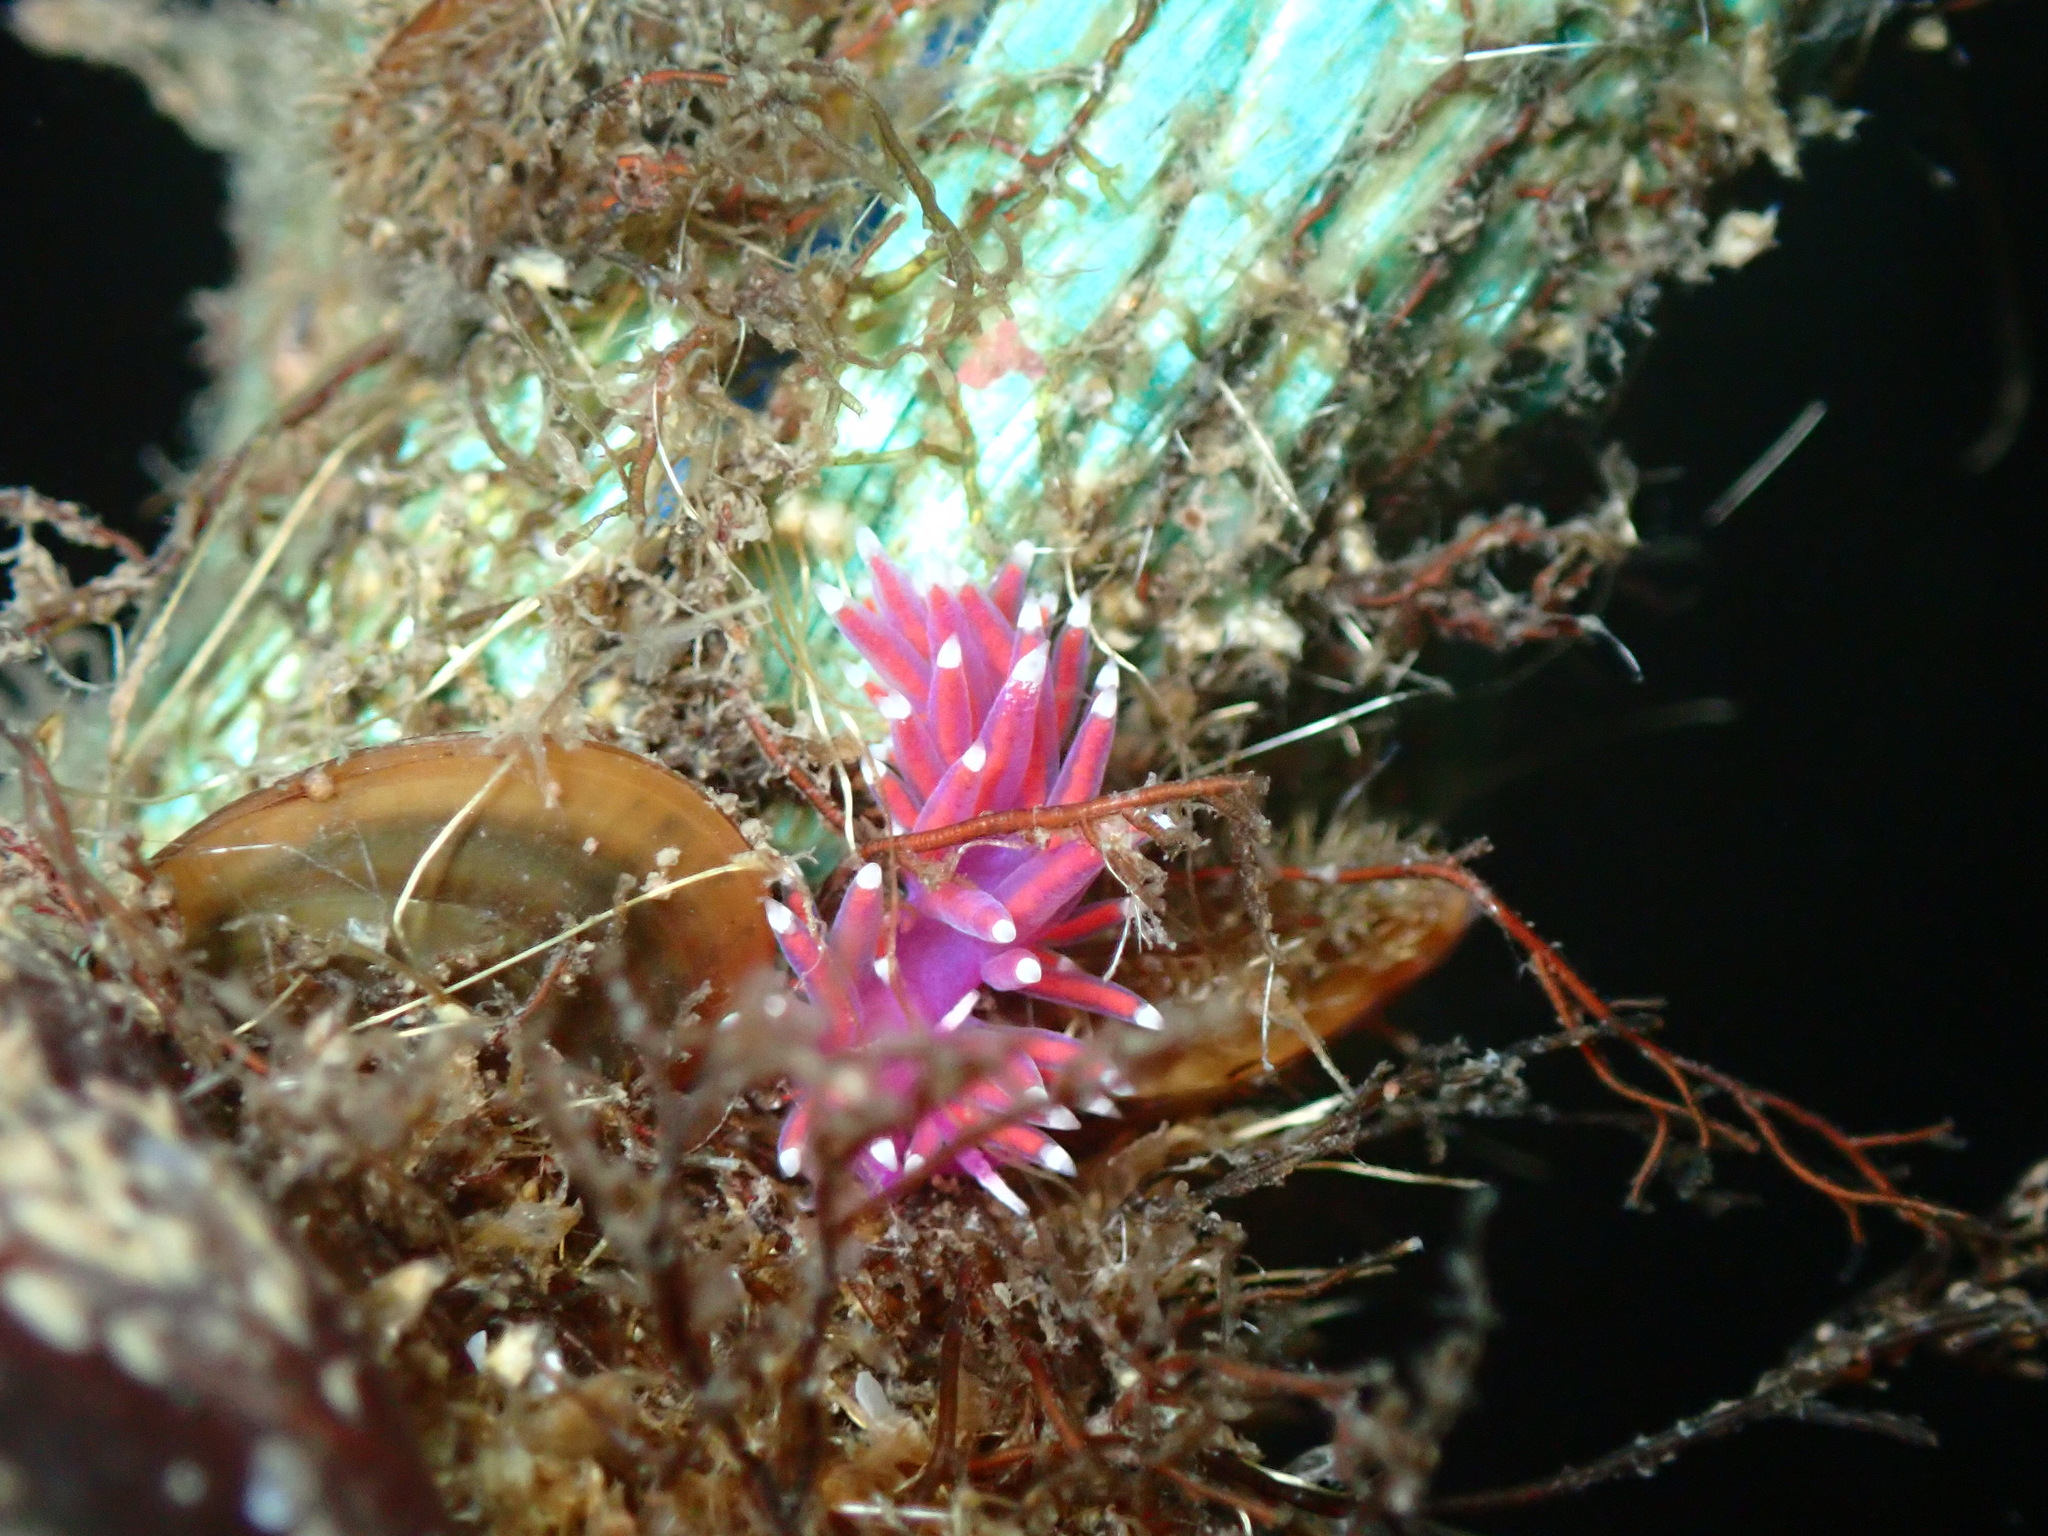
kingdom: Animalia
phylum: Mollusca
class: Gastropoda
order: Nudibranchia
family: Flabellinidae
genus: Edmundsella
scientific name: Edmundsella pedata
